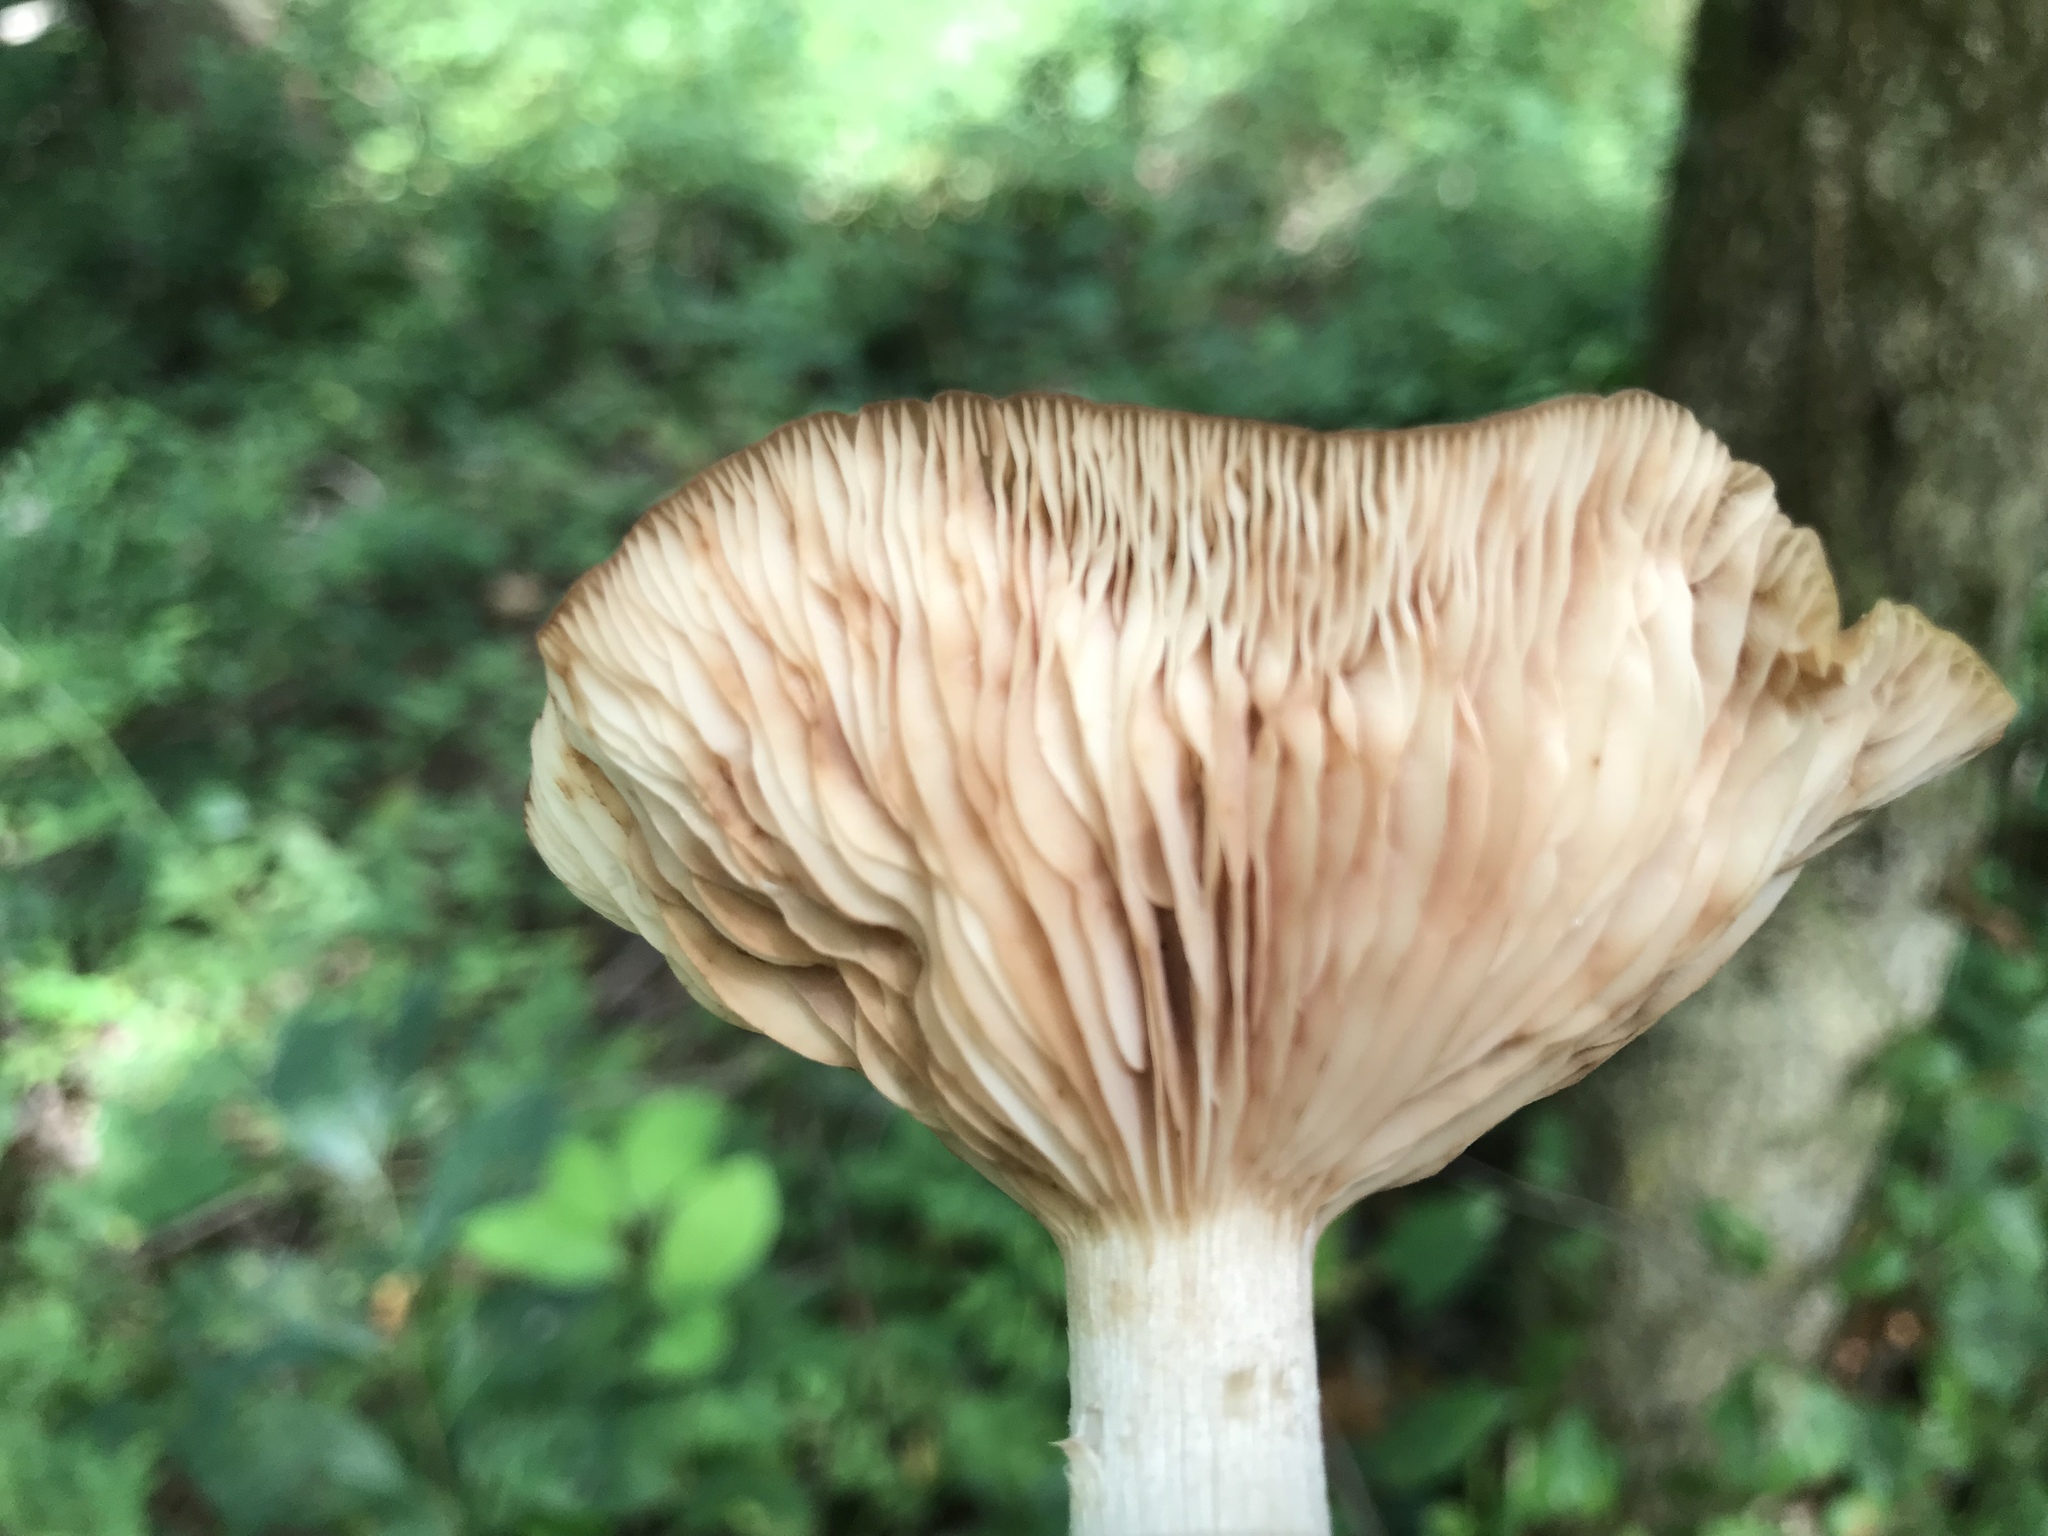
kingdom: Fungi
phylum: Basidiomycota
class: Agaricomycetes
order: Agaricales
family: Physalacriaceae
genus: Desarmillaria
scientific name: Desarmillaria caespitosa
